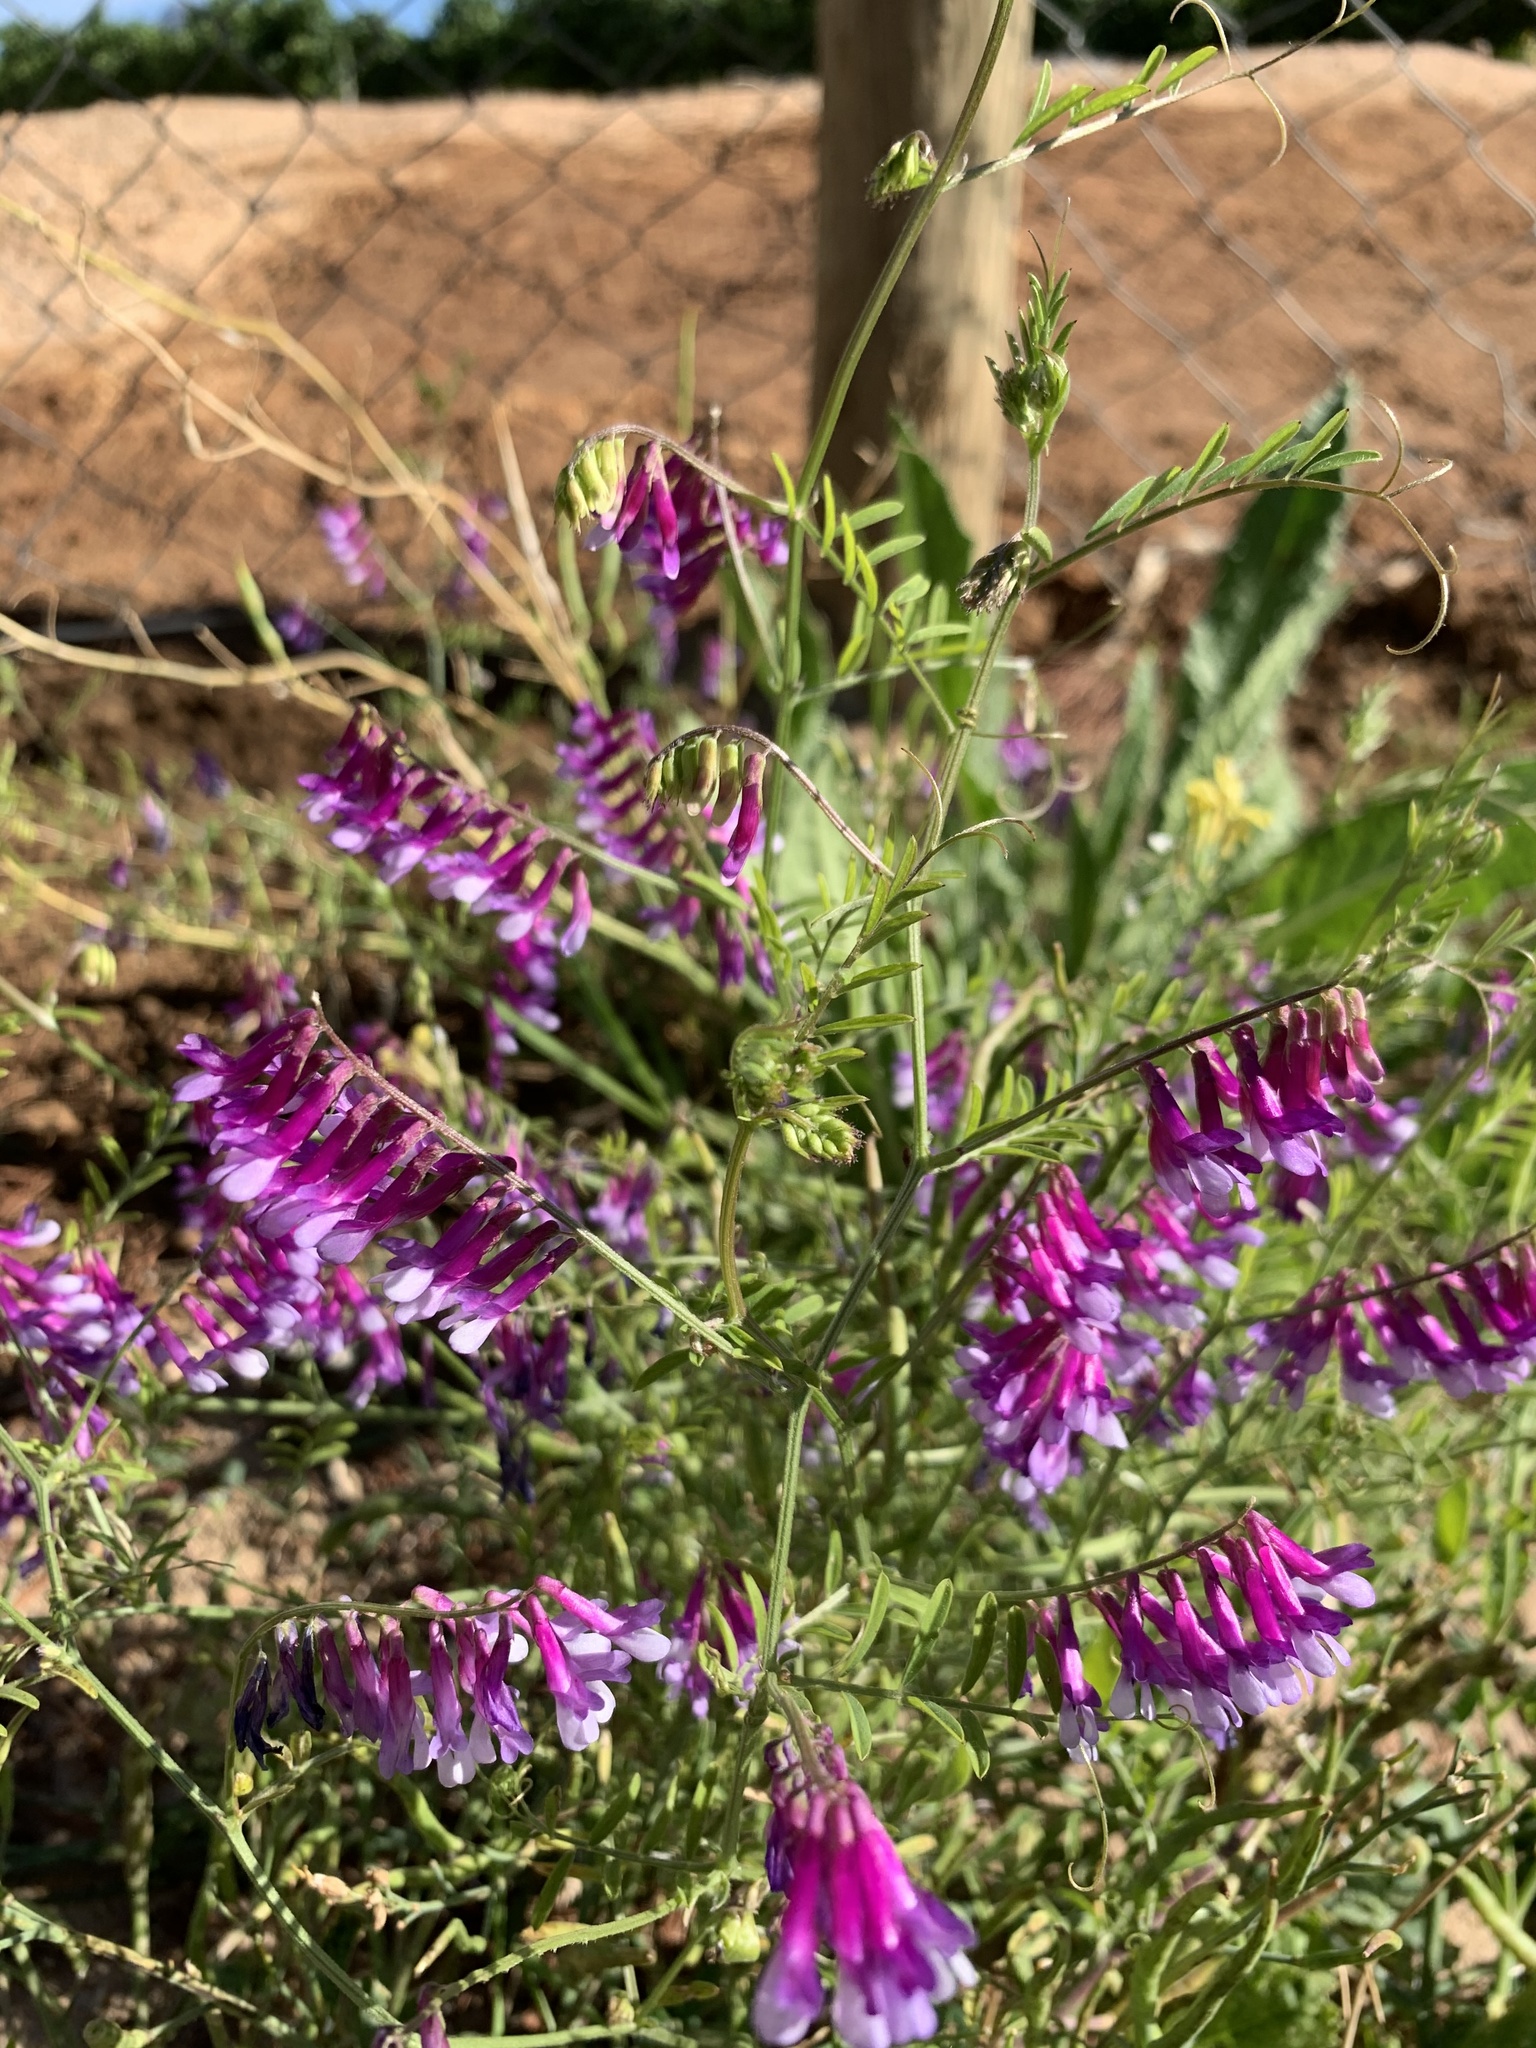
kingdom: Plantae
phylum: Tracheophyta
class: Magnoliopsida
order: Fabales
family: Fabaceae
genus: Vicia
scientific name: Vicia eriocarpa
